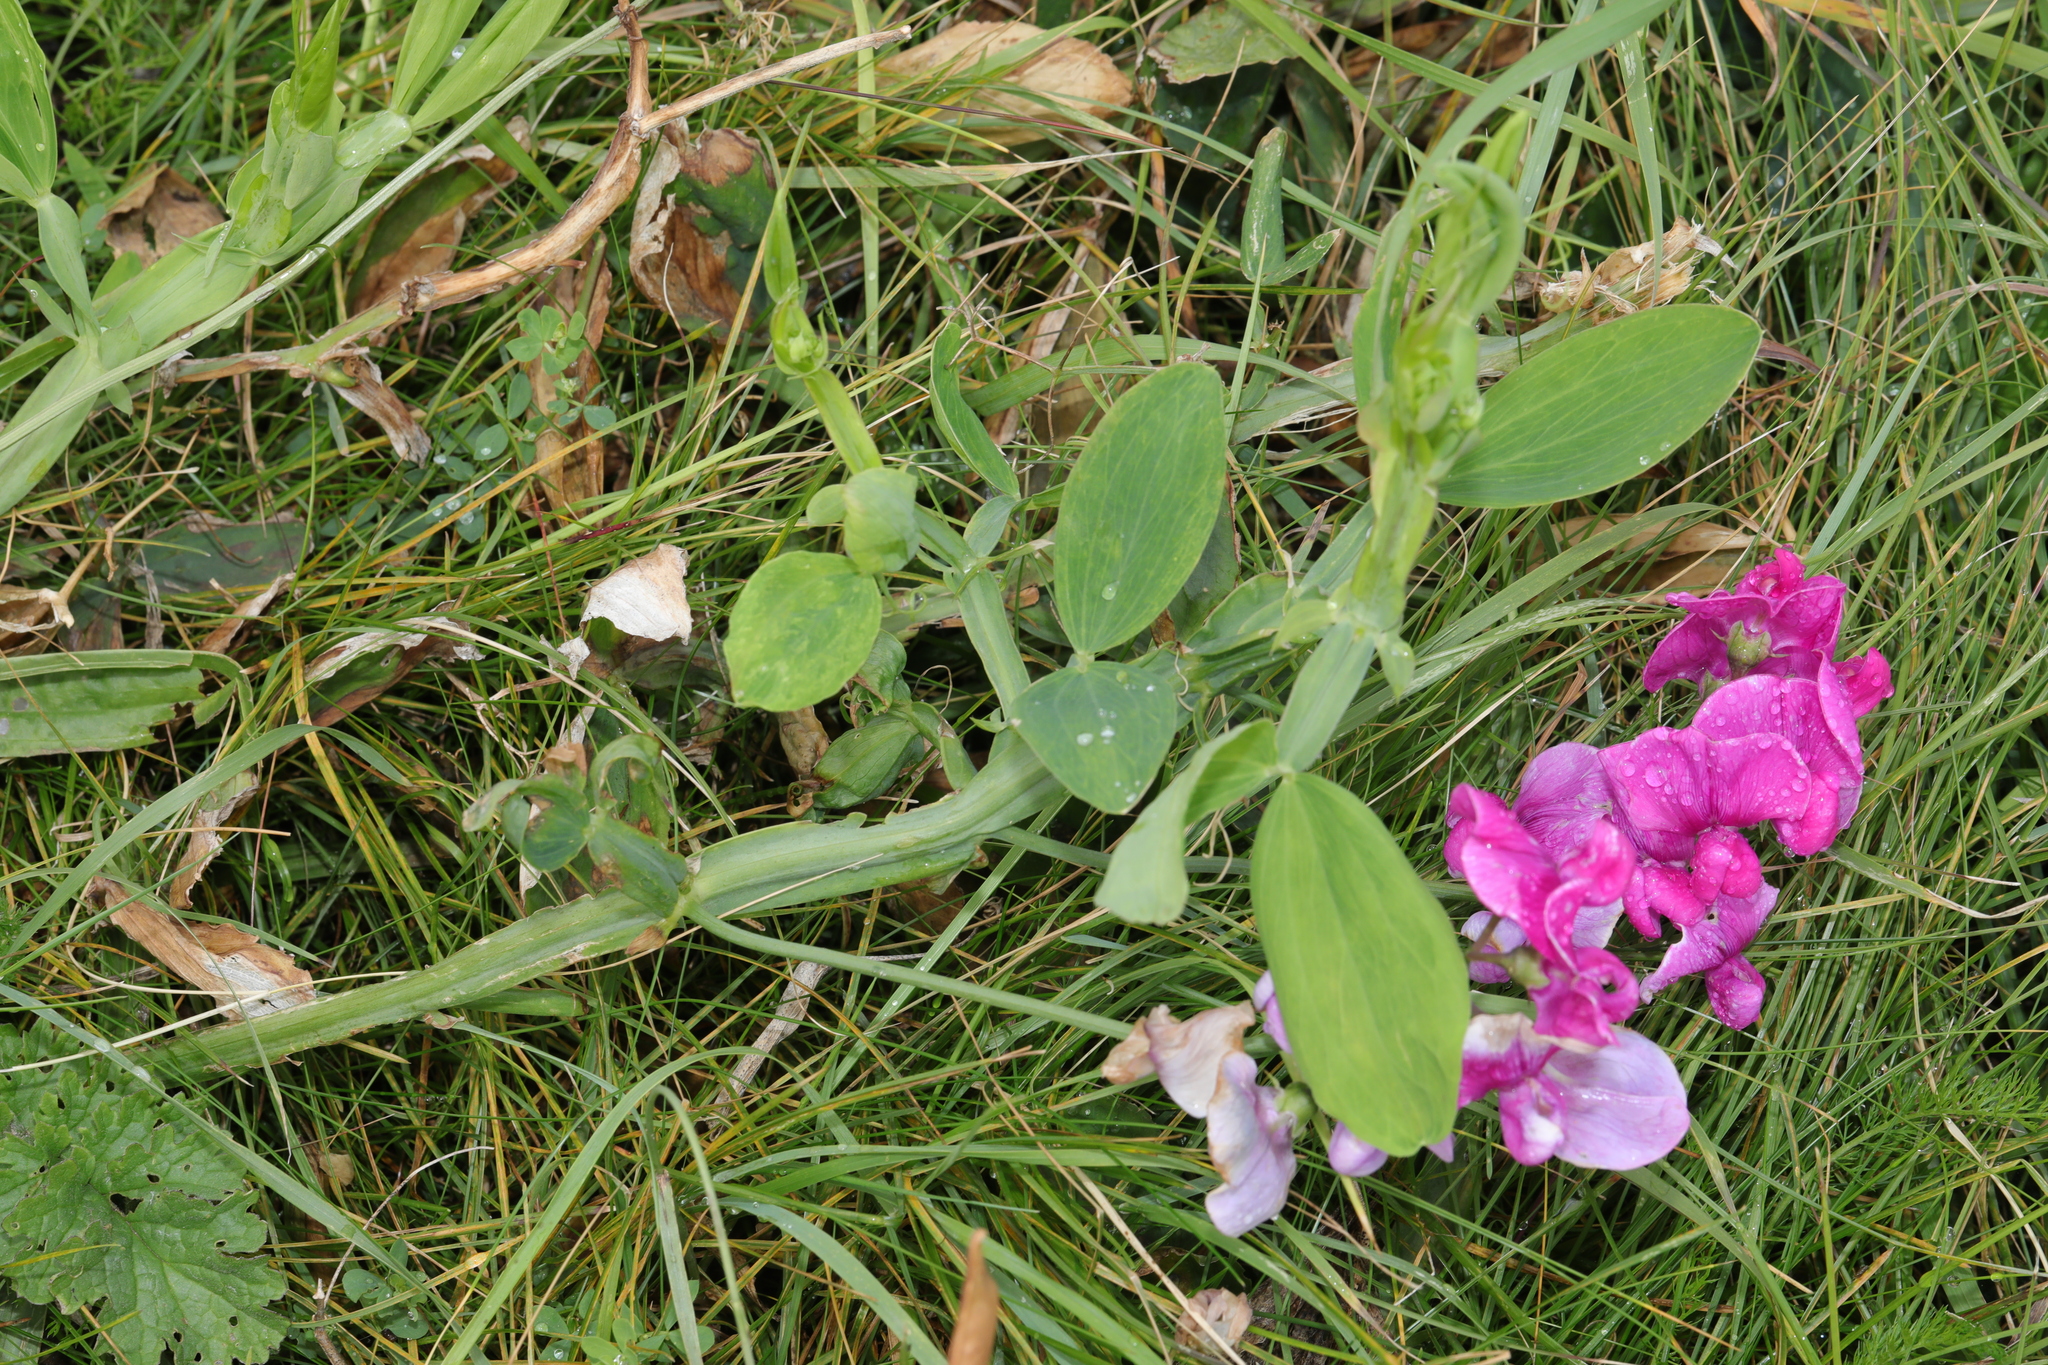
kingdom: Plantae
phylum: Tracheophyta
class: Magnoliopsida
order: Fabales
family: Fabaceae
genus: Lathyrus
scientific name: Lathyrus latifolius
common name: Perennial pea
